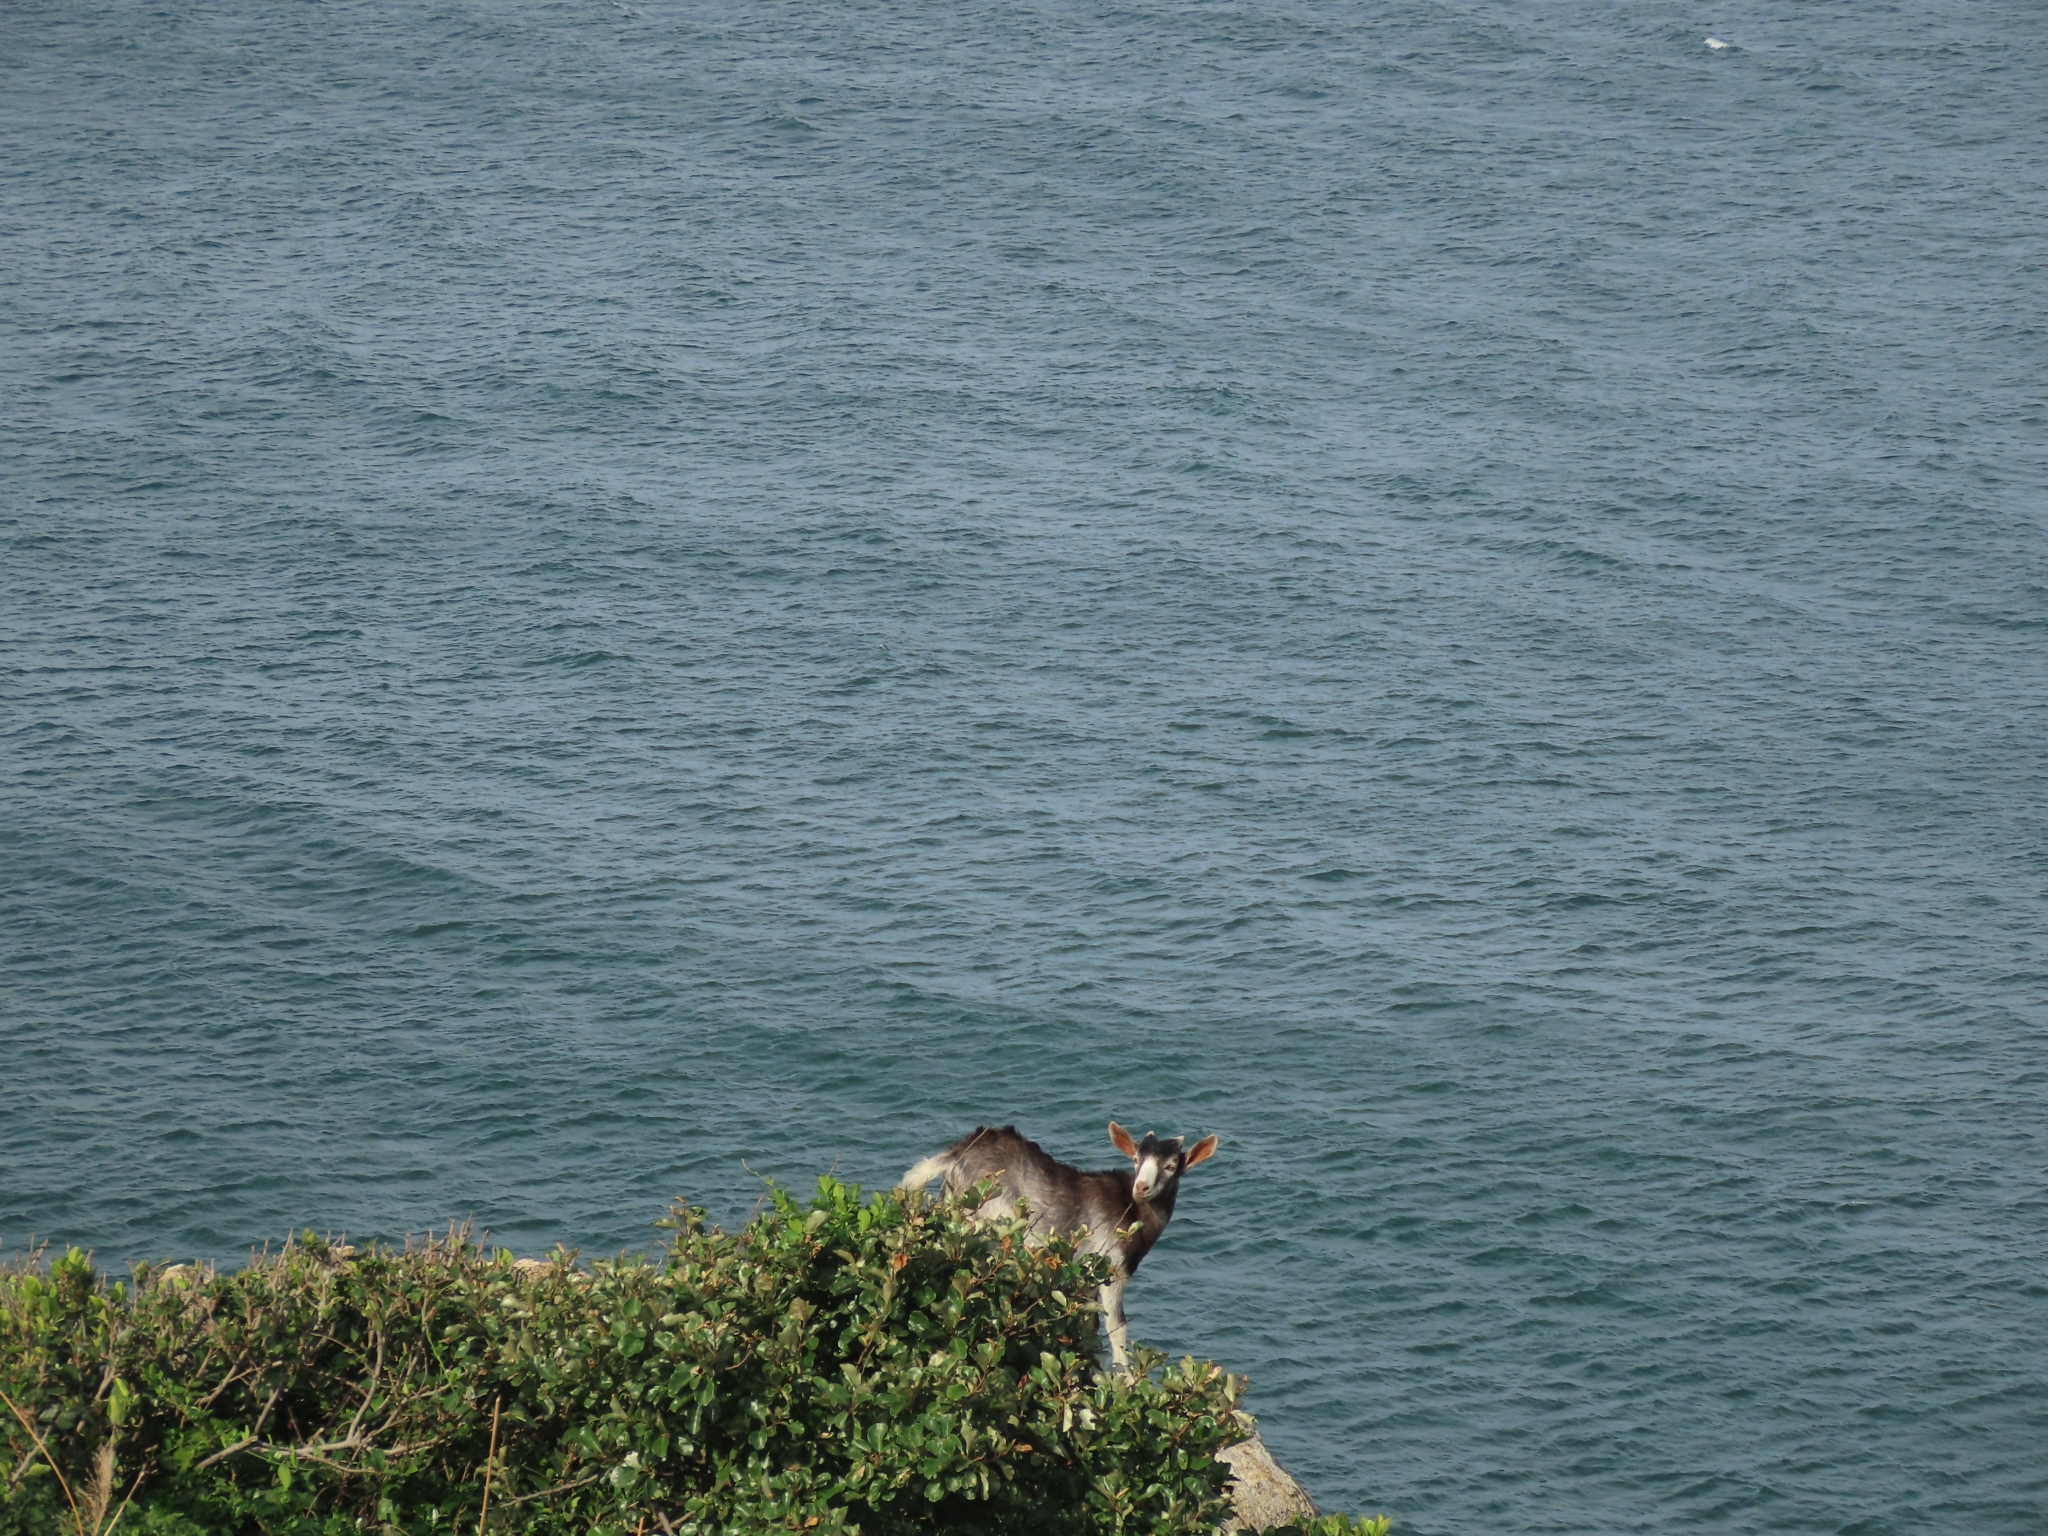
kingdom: Animalia
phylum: Chordata
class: Mammalia
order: Artiodactyla
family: Bovidae
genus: Capra
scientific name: Capra hircus
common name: Domestic goat
